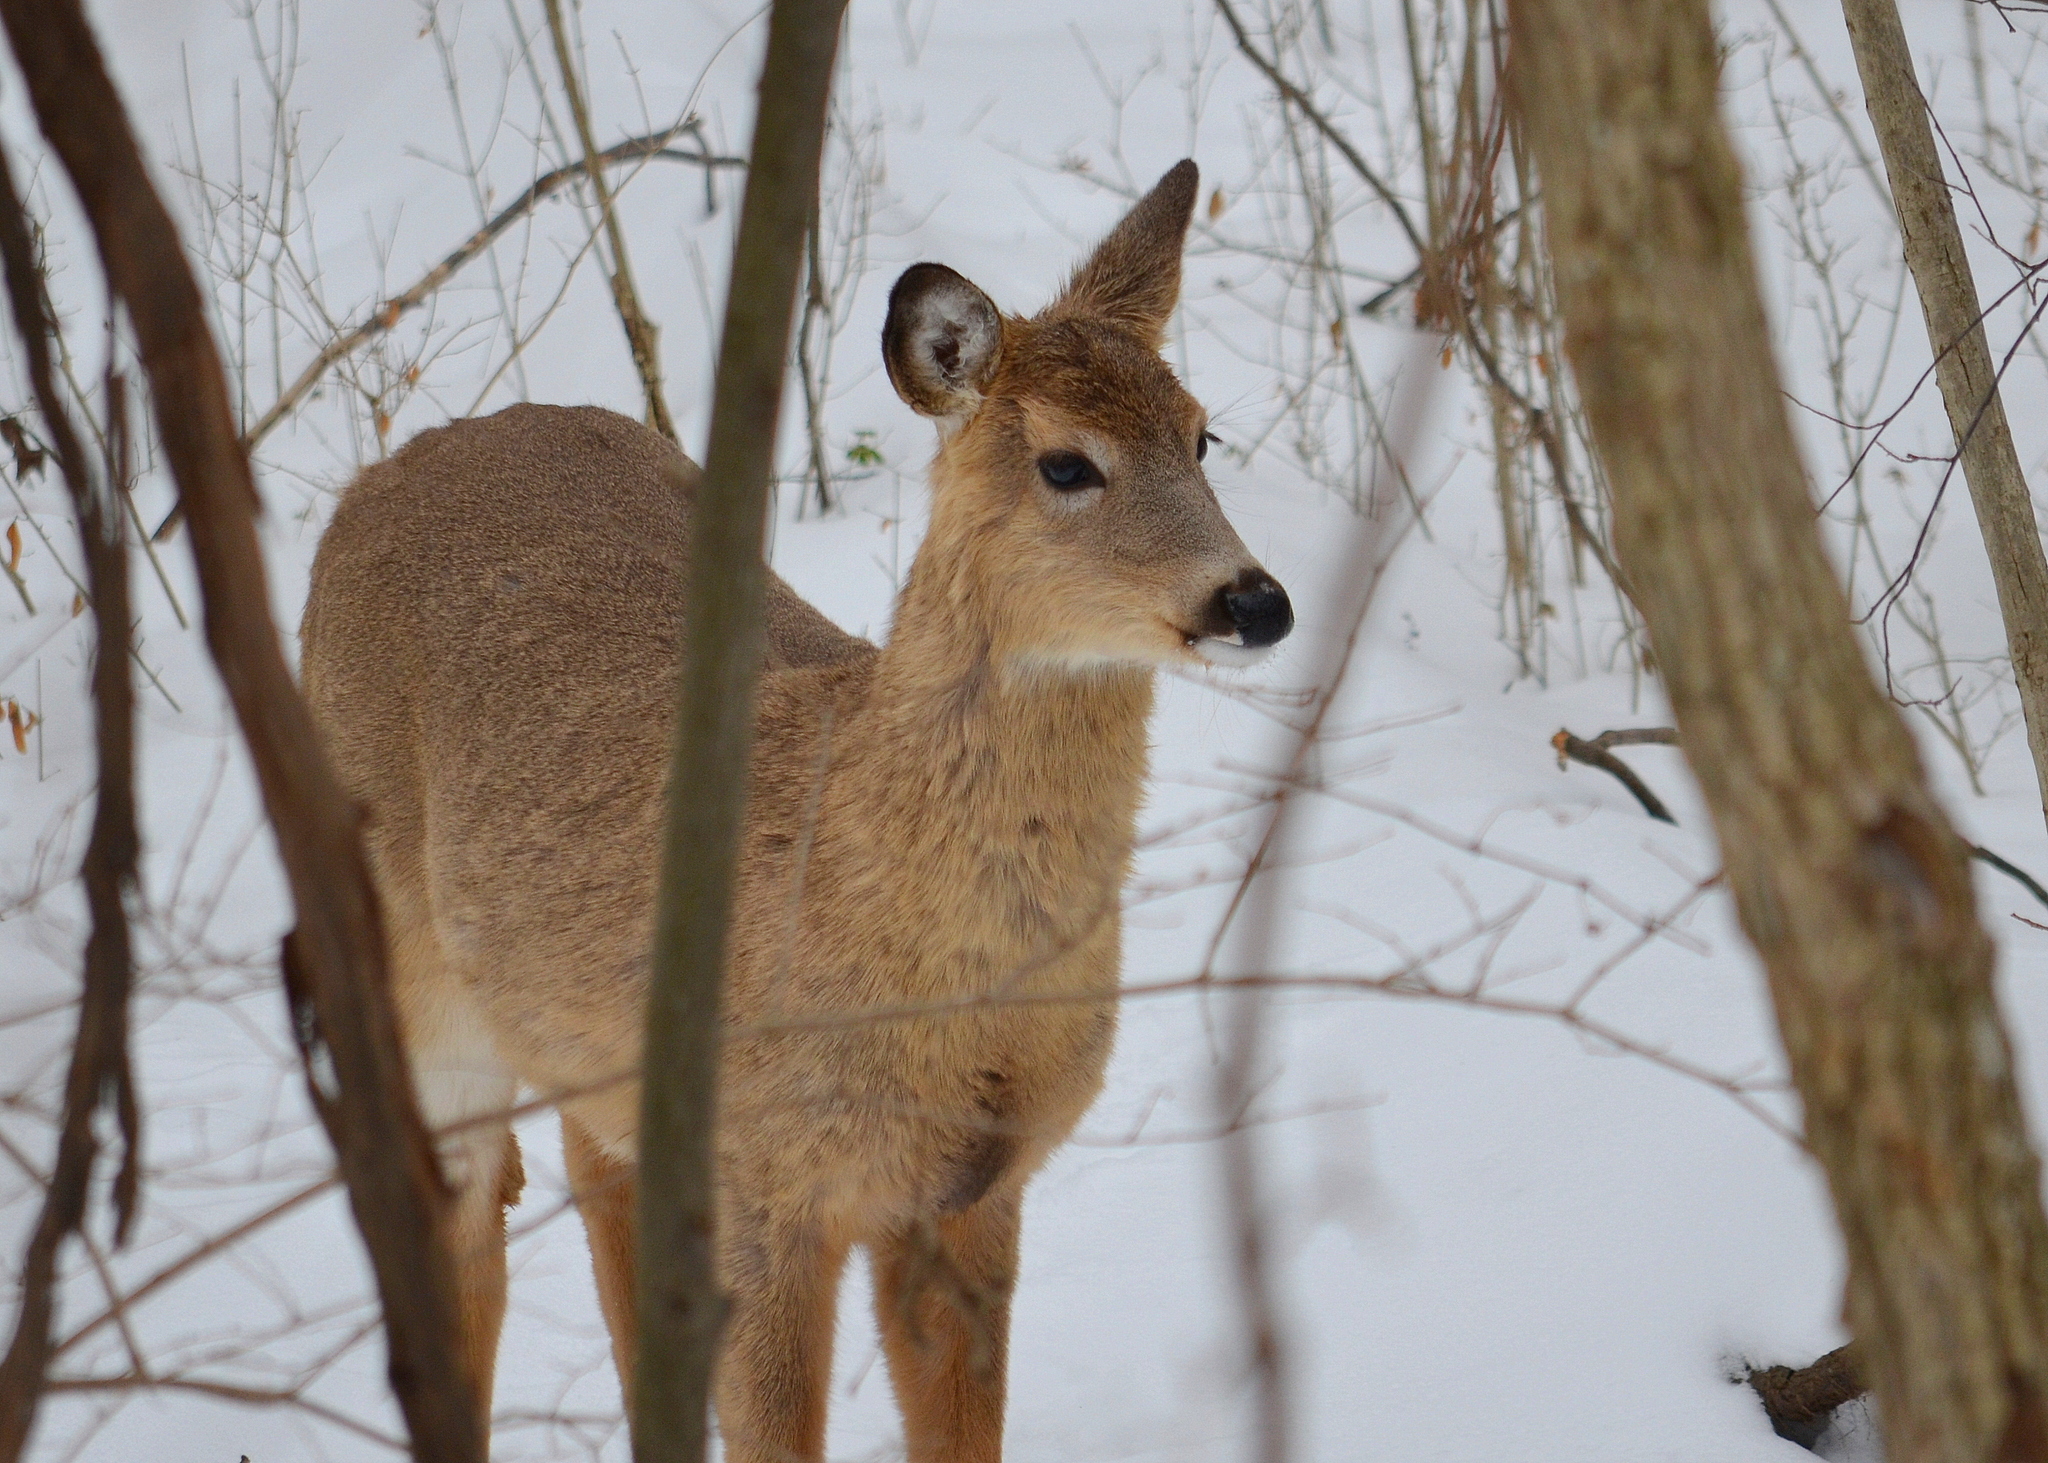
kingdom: Animalia
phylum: Chordata
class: Mammalia
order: Artiodactyla
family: Cervidae
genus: Odocoileus
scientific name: Odocoileus virginianus
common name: White-tailed deer
